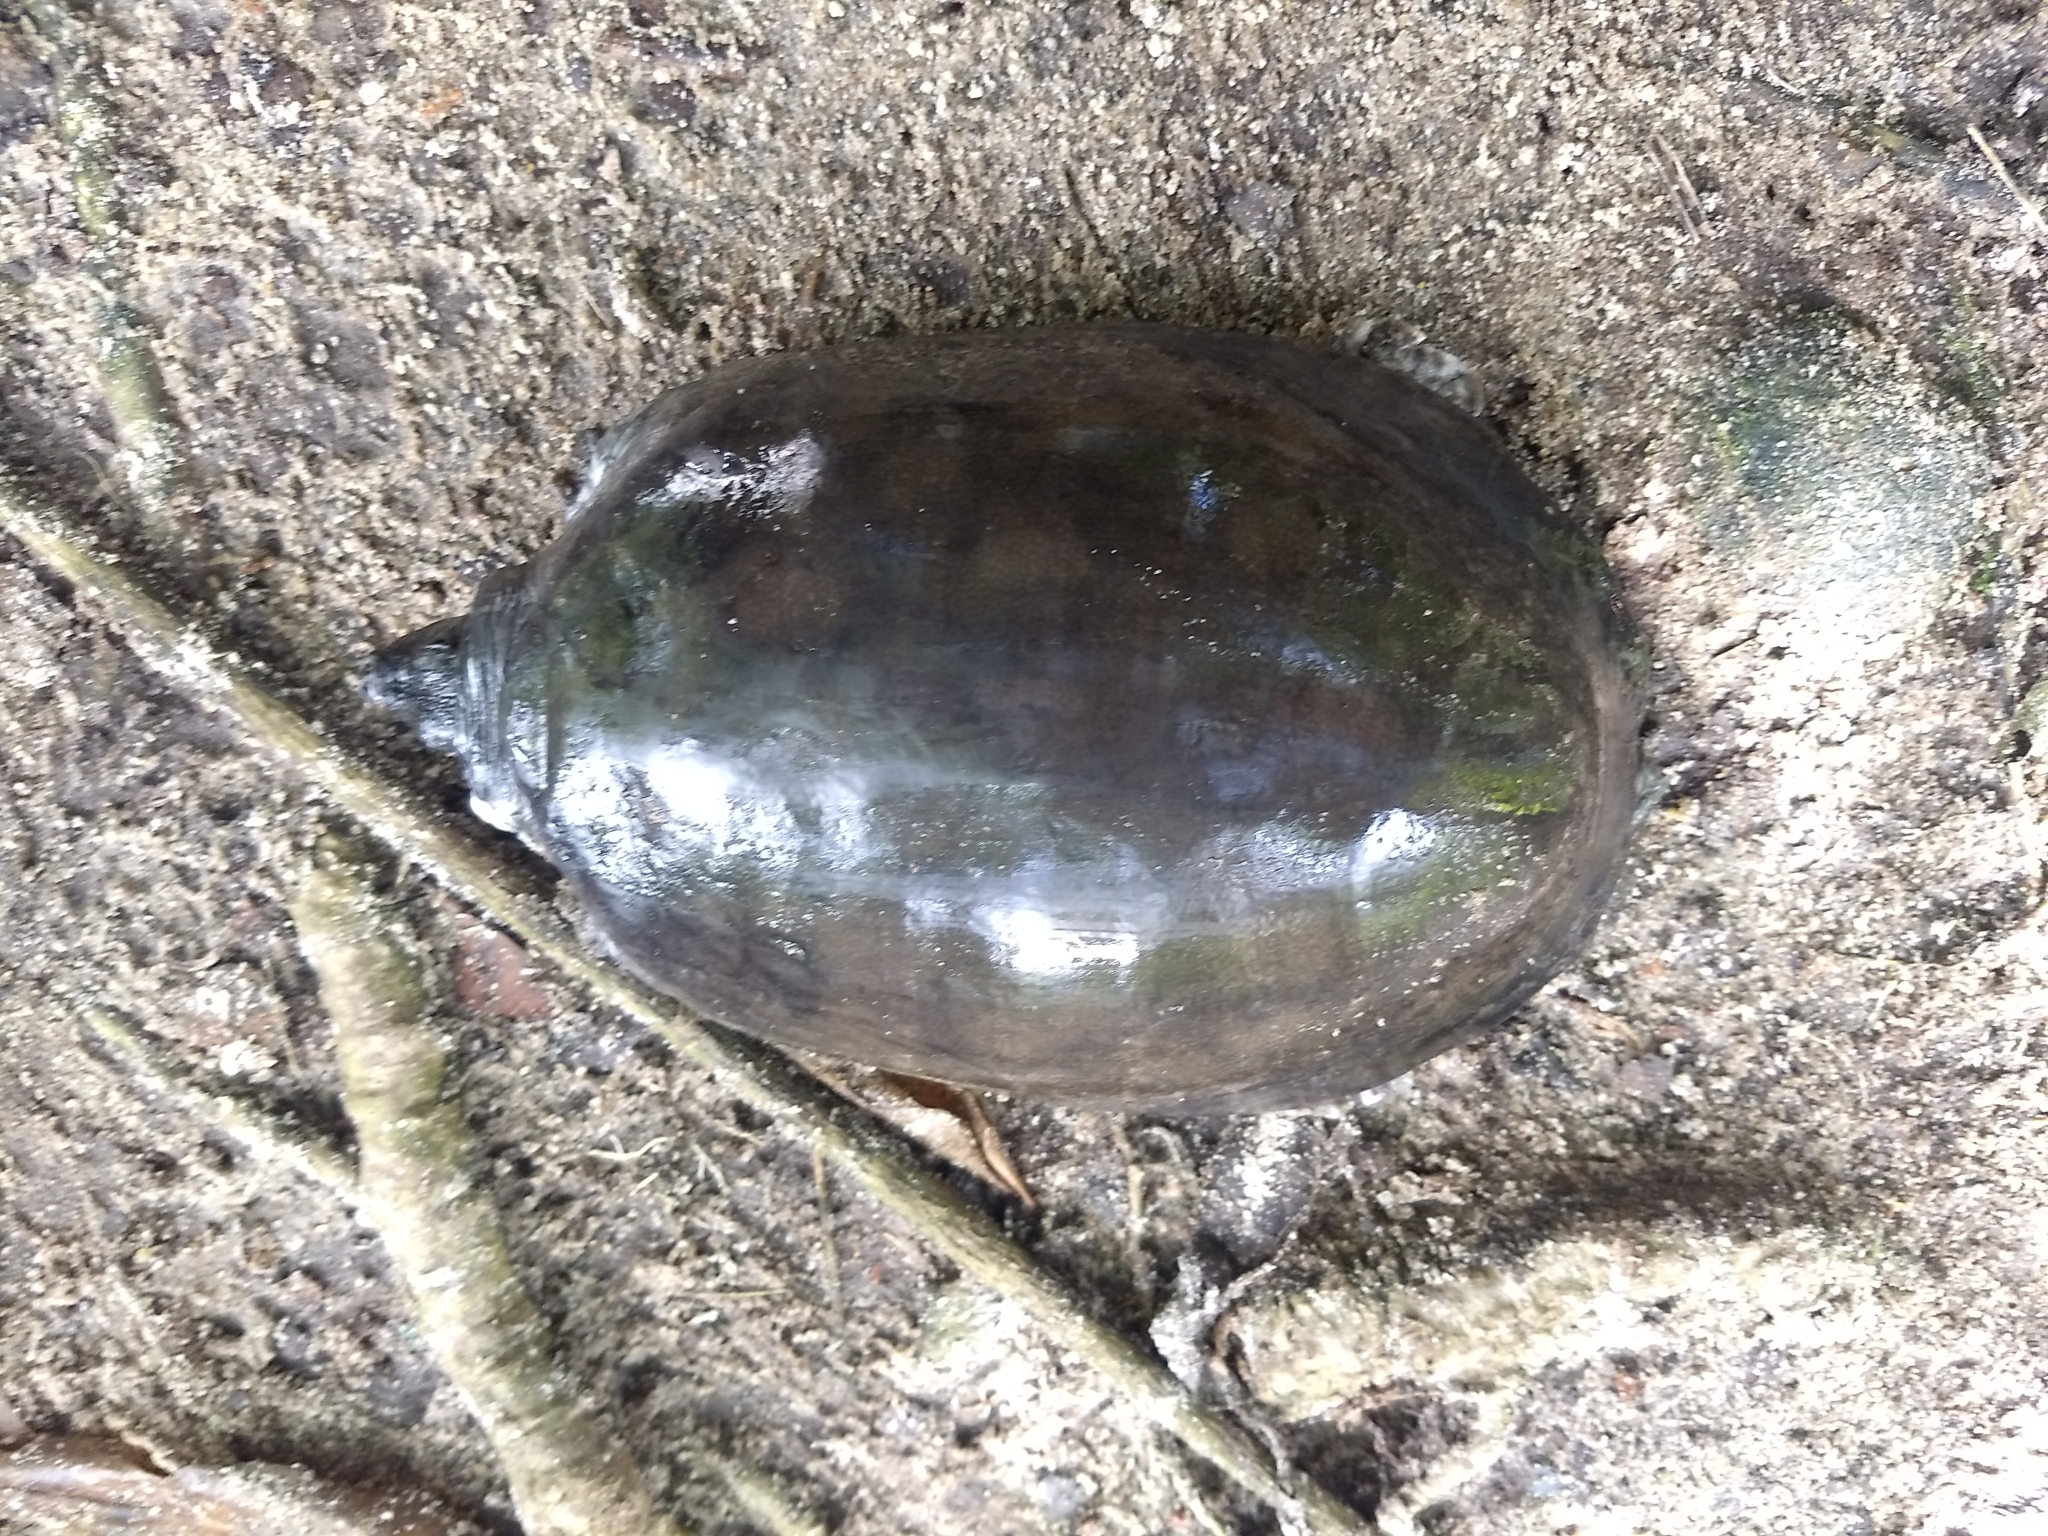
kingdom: Animalia
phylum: Chordata
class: Testudines
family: Trionychidae
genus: Lissemys
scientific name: Lissemys punctata
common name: Indian flap-shelled turtle
